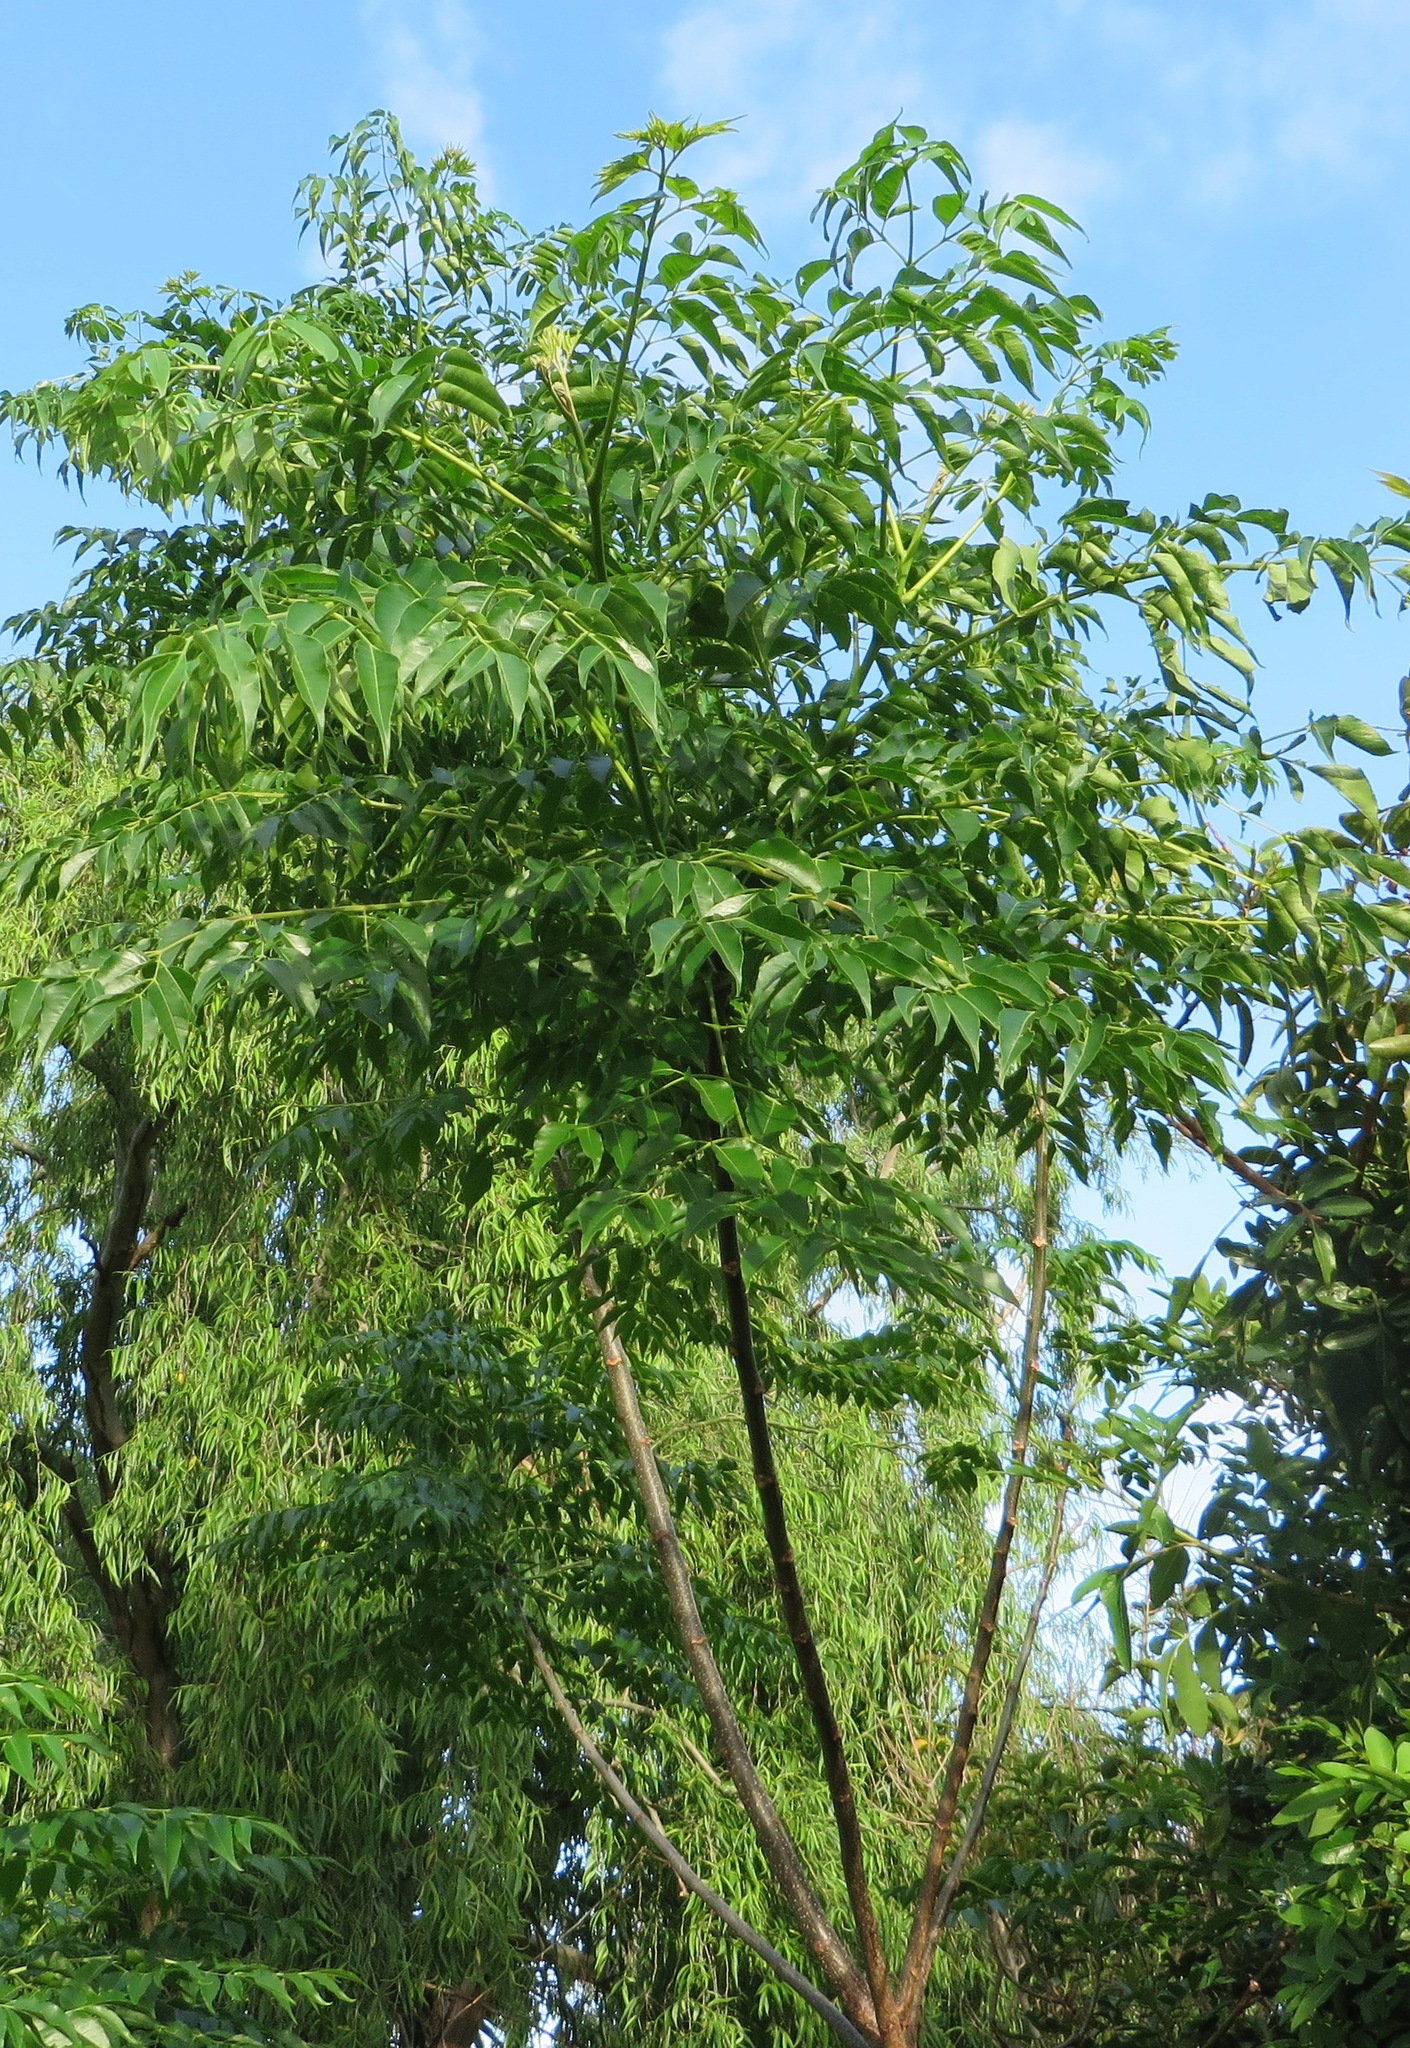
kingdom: Plantae
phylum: Tracheophyta
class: Magnoliopsida
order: Sapindales
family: Meliaceae
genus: Melia
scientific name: Melia azedarach
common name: Chinaberrytree
